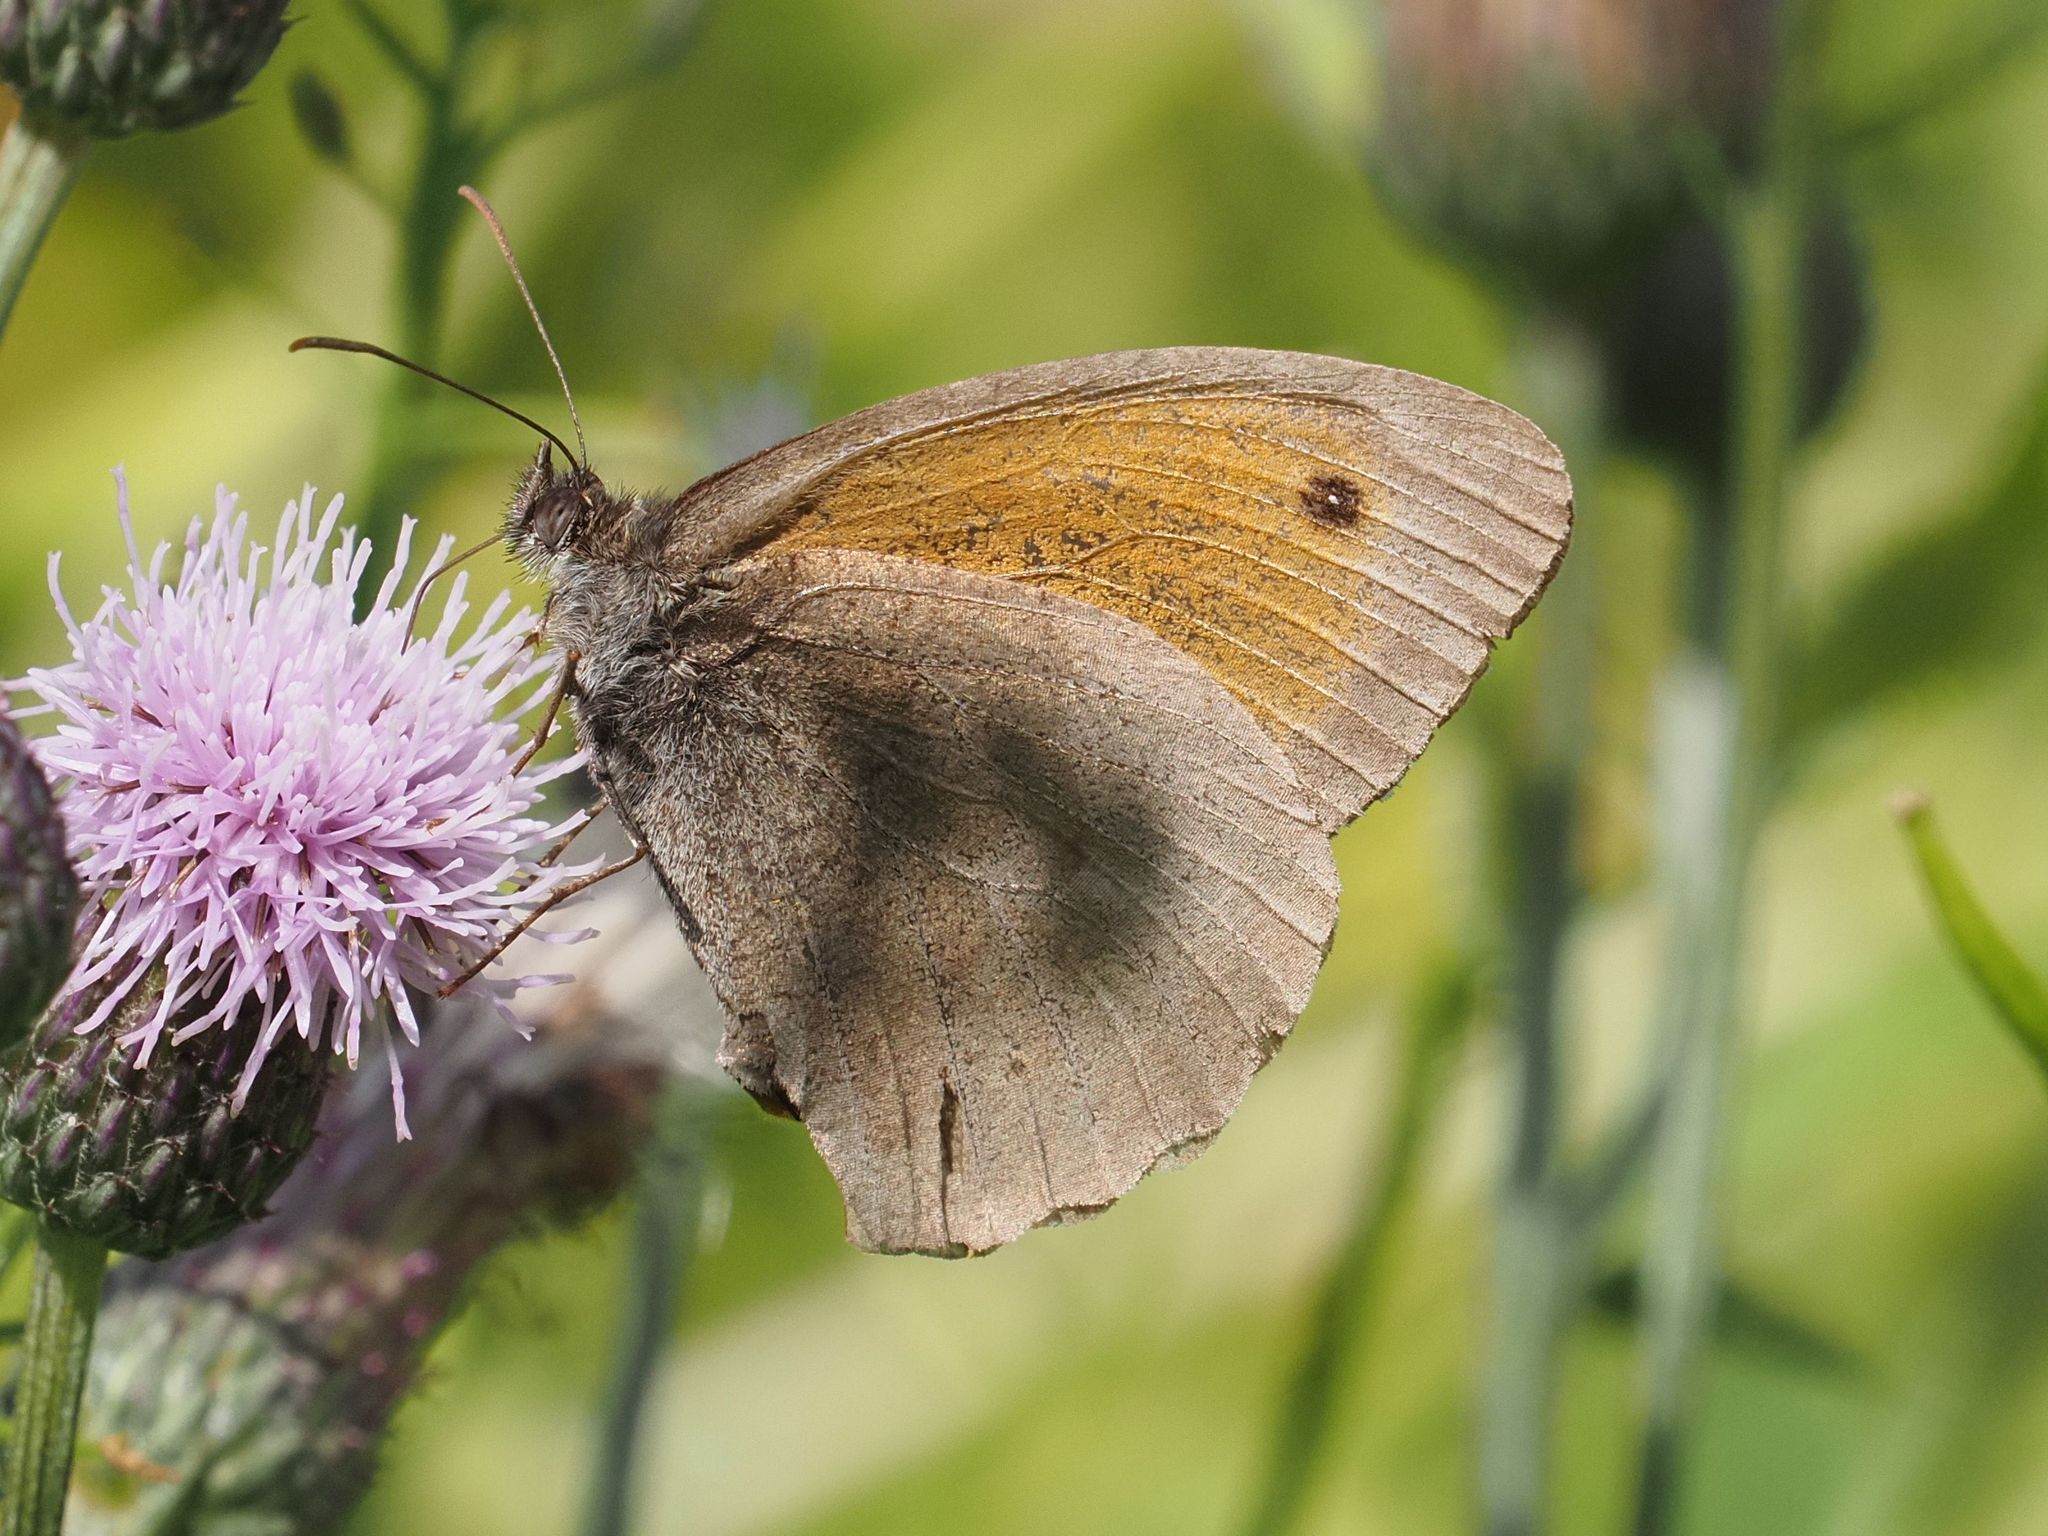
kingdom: Animalia
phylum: Arthropoda
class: Insecta
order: Lepidoptera
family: Nymphalidae
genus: Maniola
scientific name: Maniola jurtina
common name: Meadow brown
